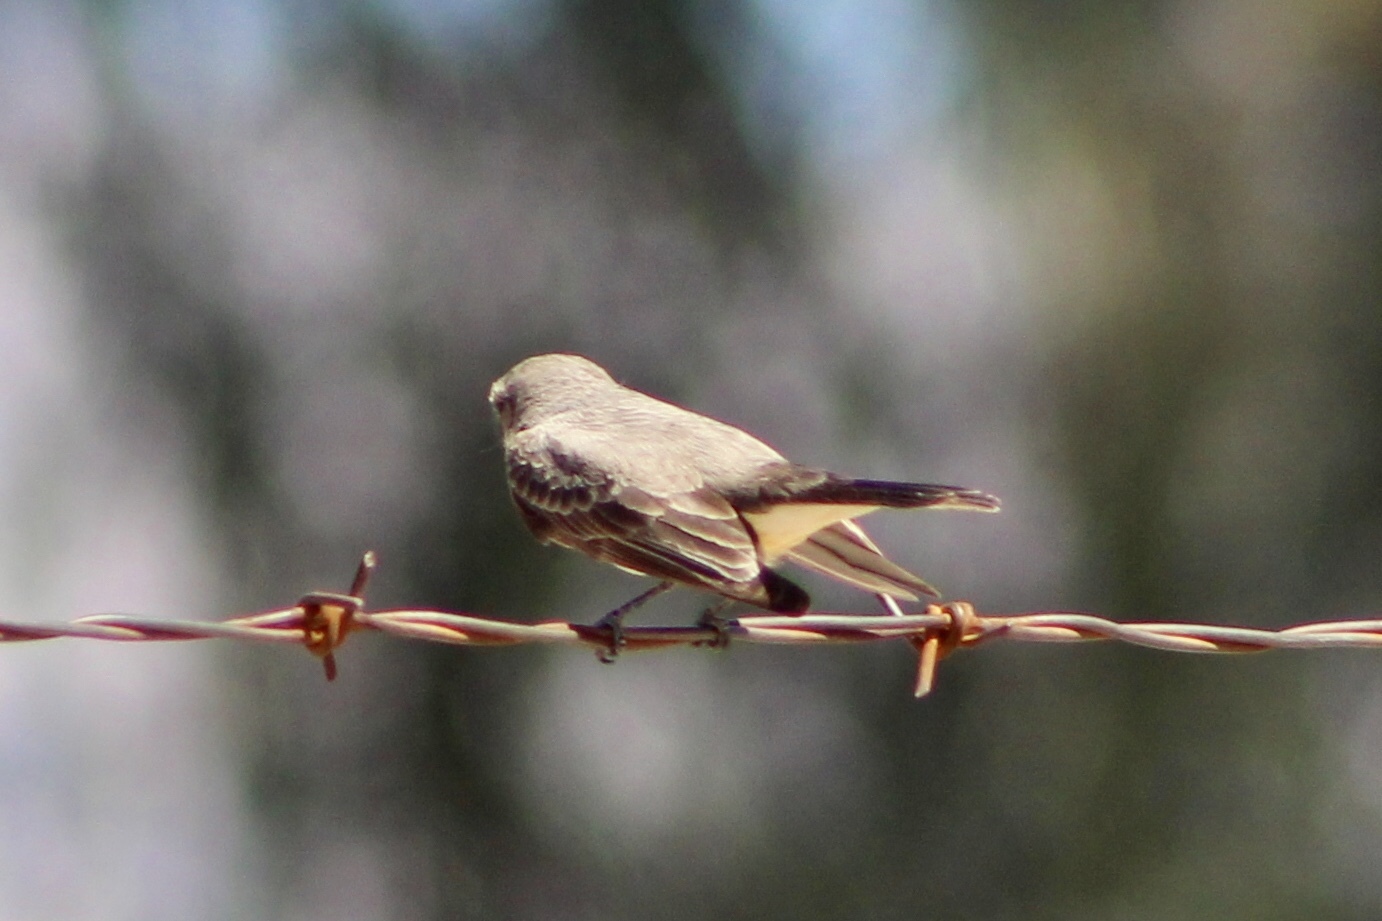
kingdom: Animalia
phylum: Chordata
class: Aves
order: Passeriformes
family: Tyrannidae
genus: Pyrocephalus
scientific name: Pyrocephalus rubinus
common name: Vermilion flycatcher
